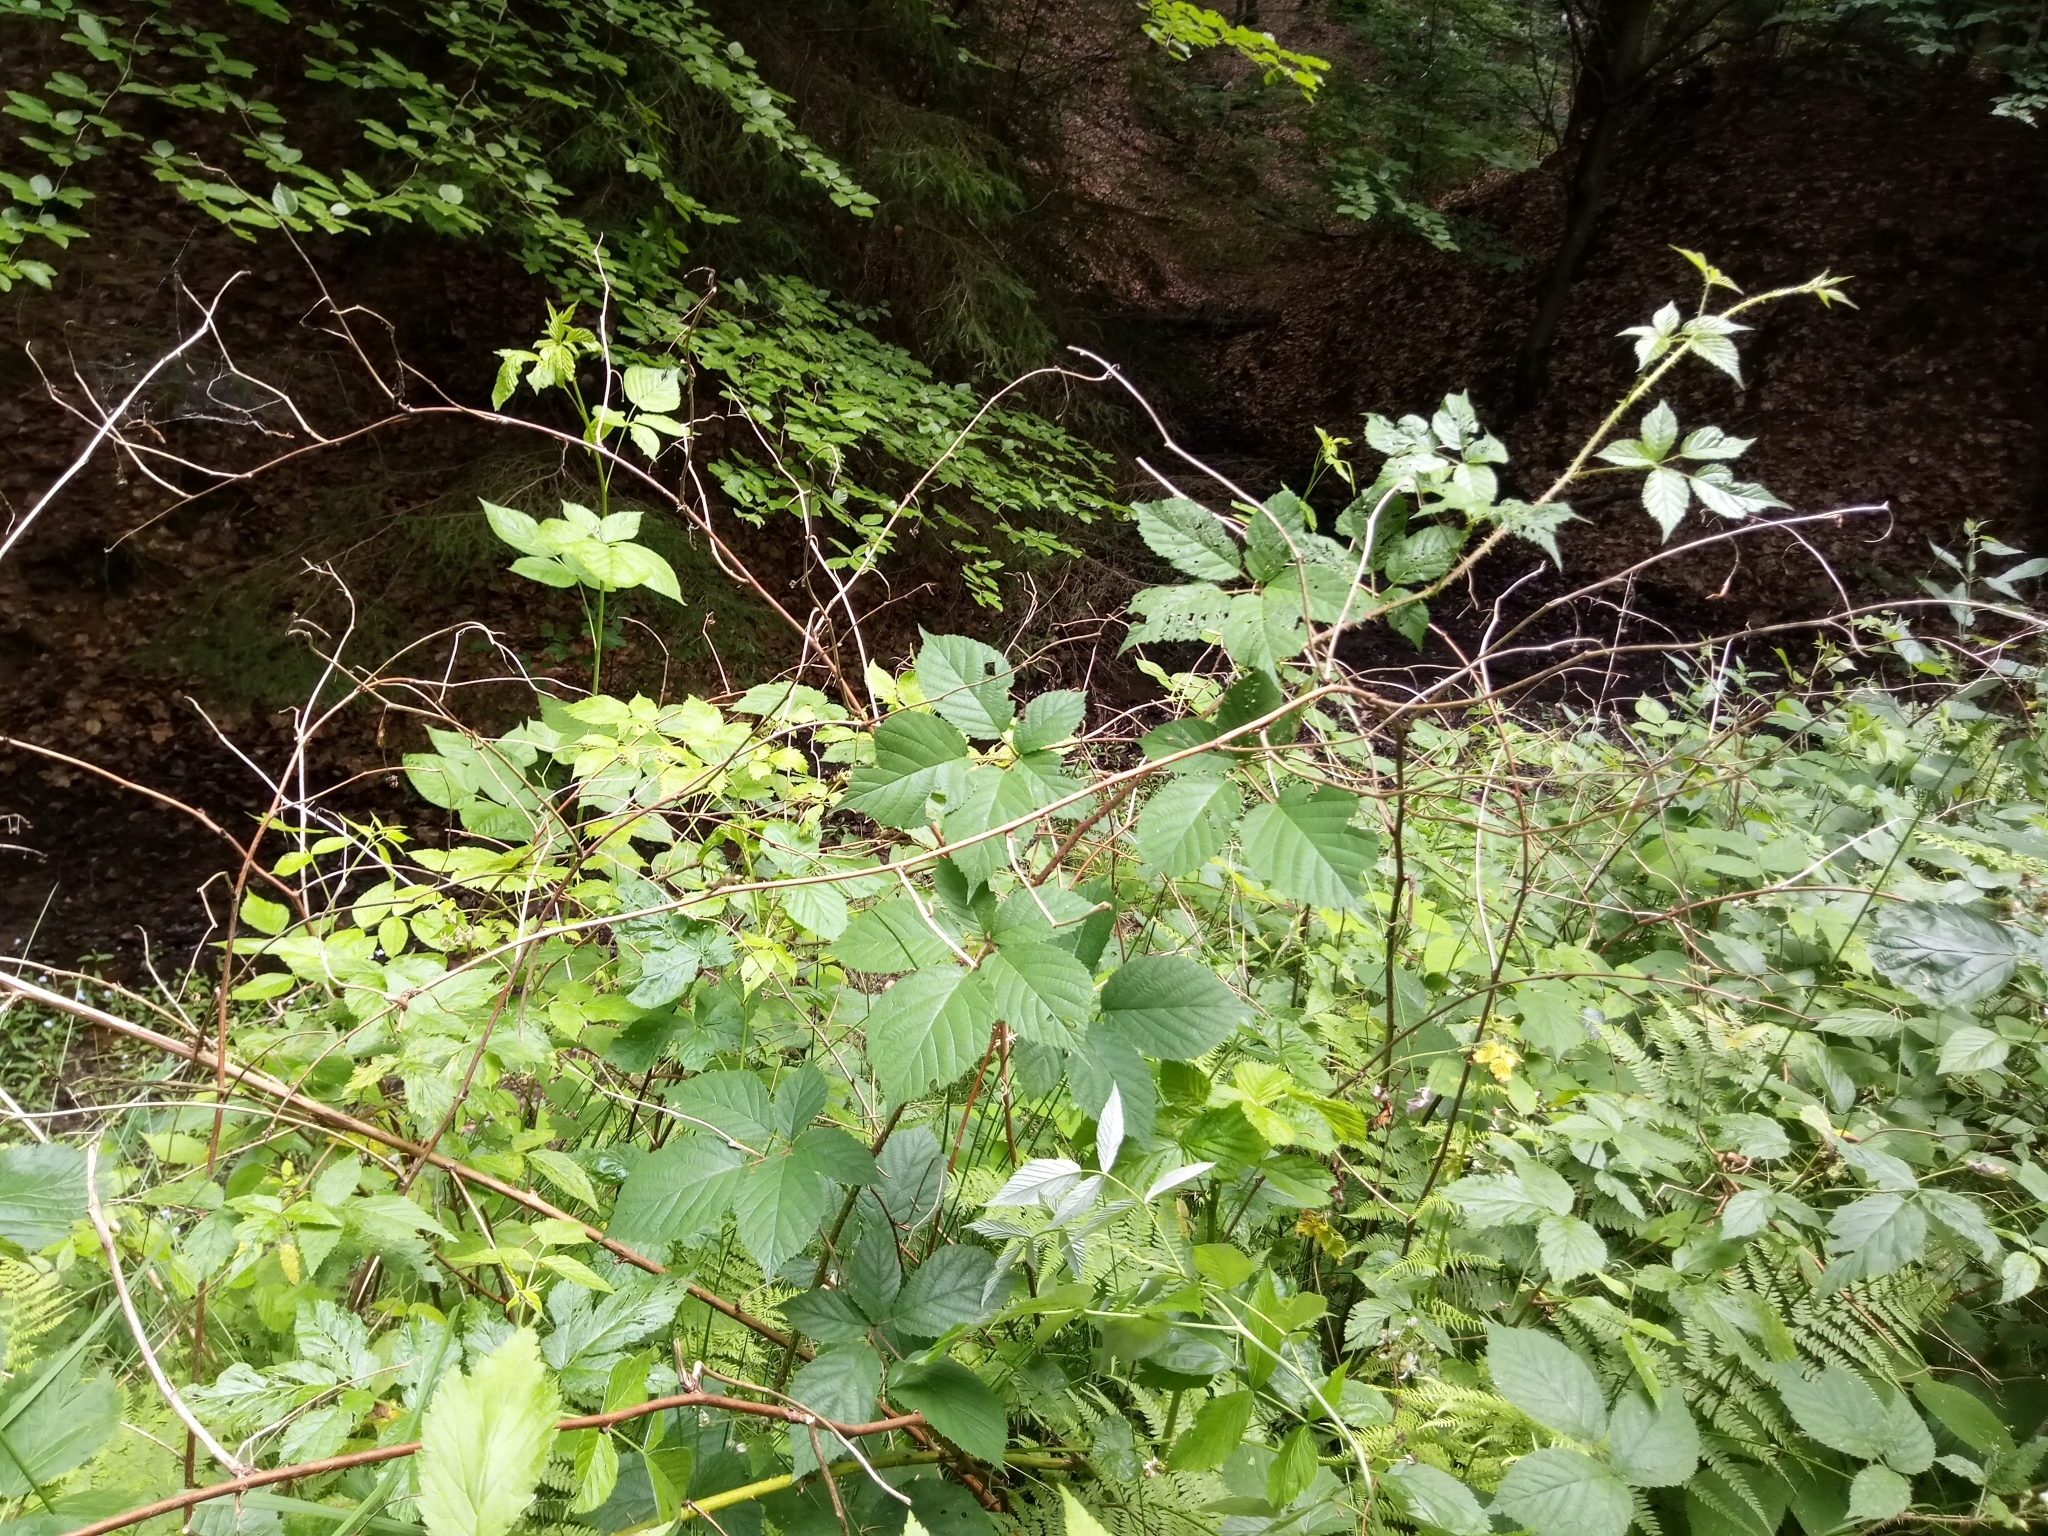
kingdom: Plantae
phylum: Tracheophyta
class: Magnoliopsida
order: Rosales
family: Rosaceae
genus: Rubus
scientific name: Rubus koehleri
